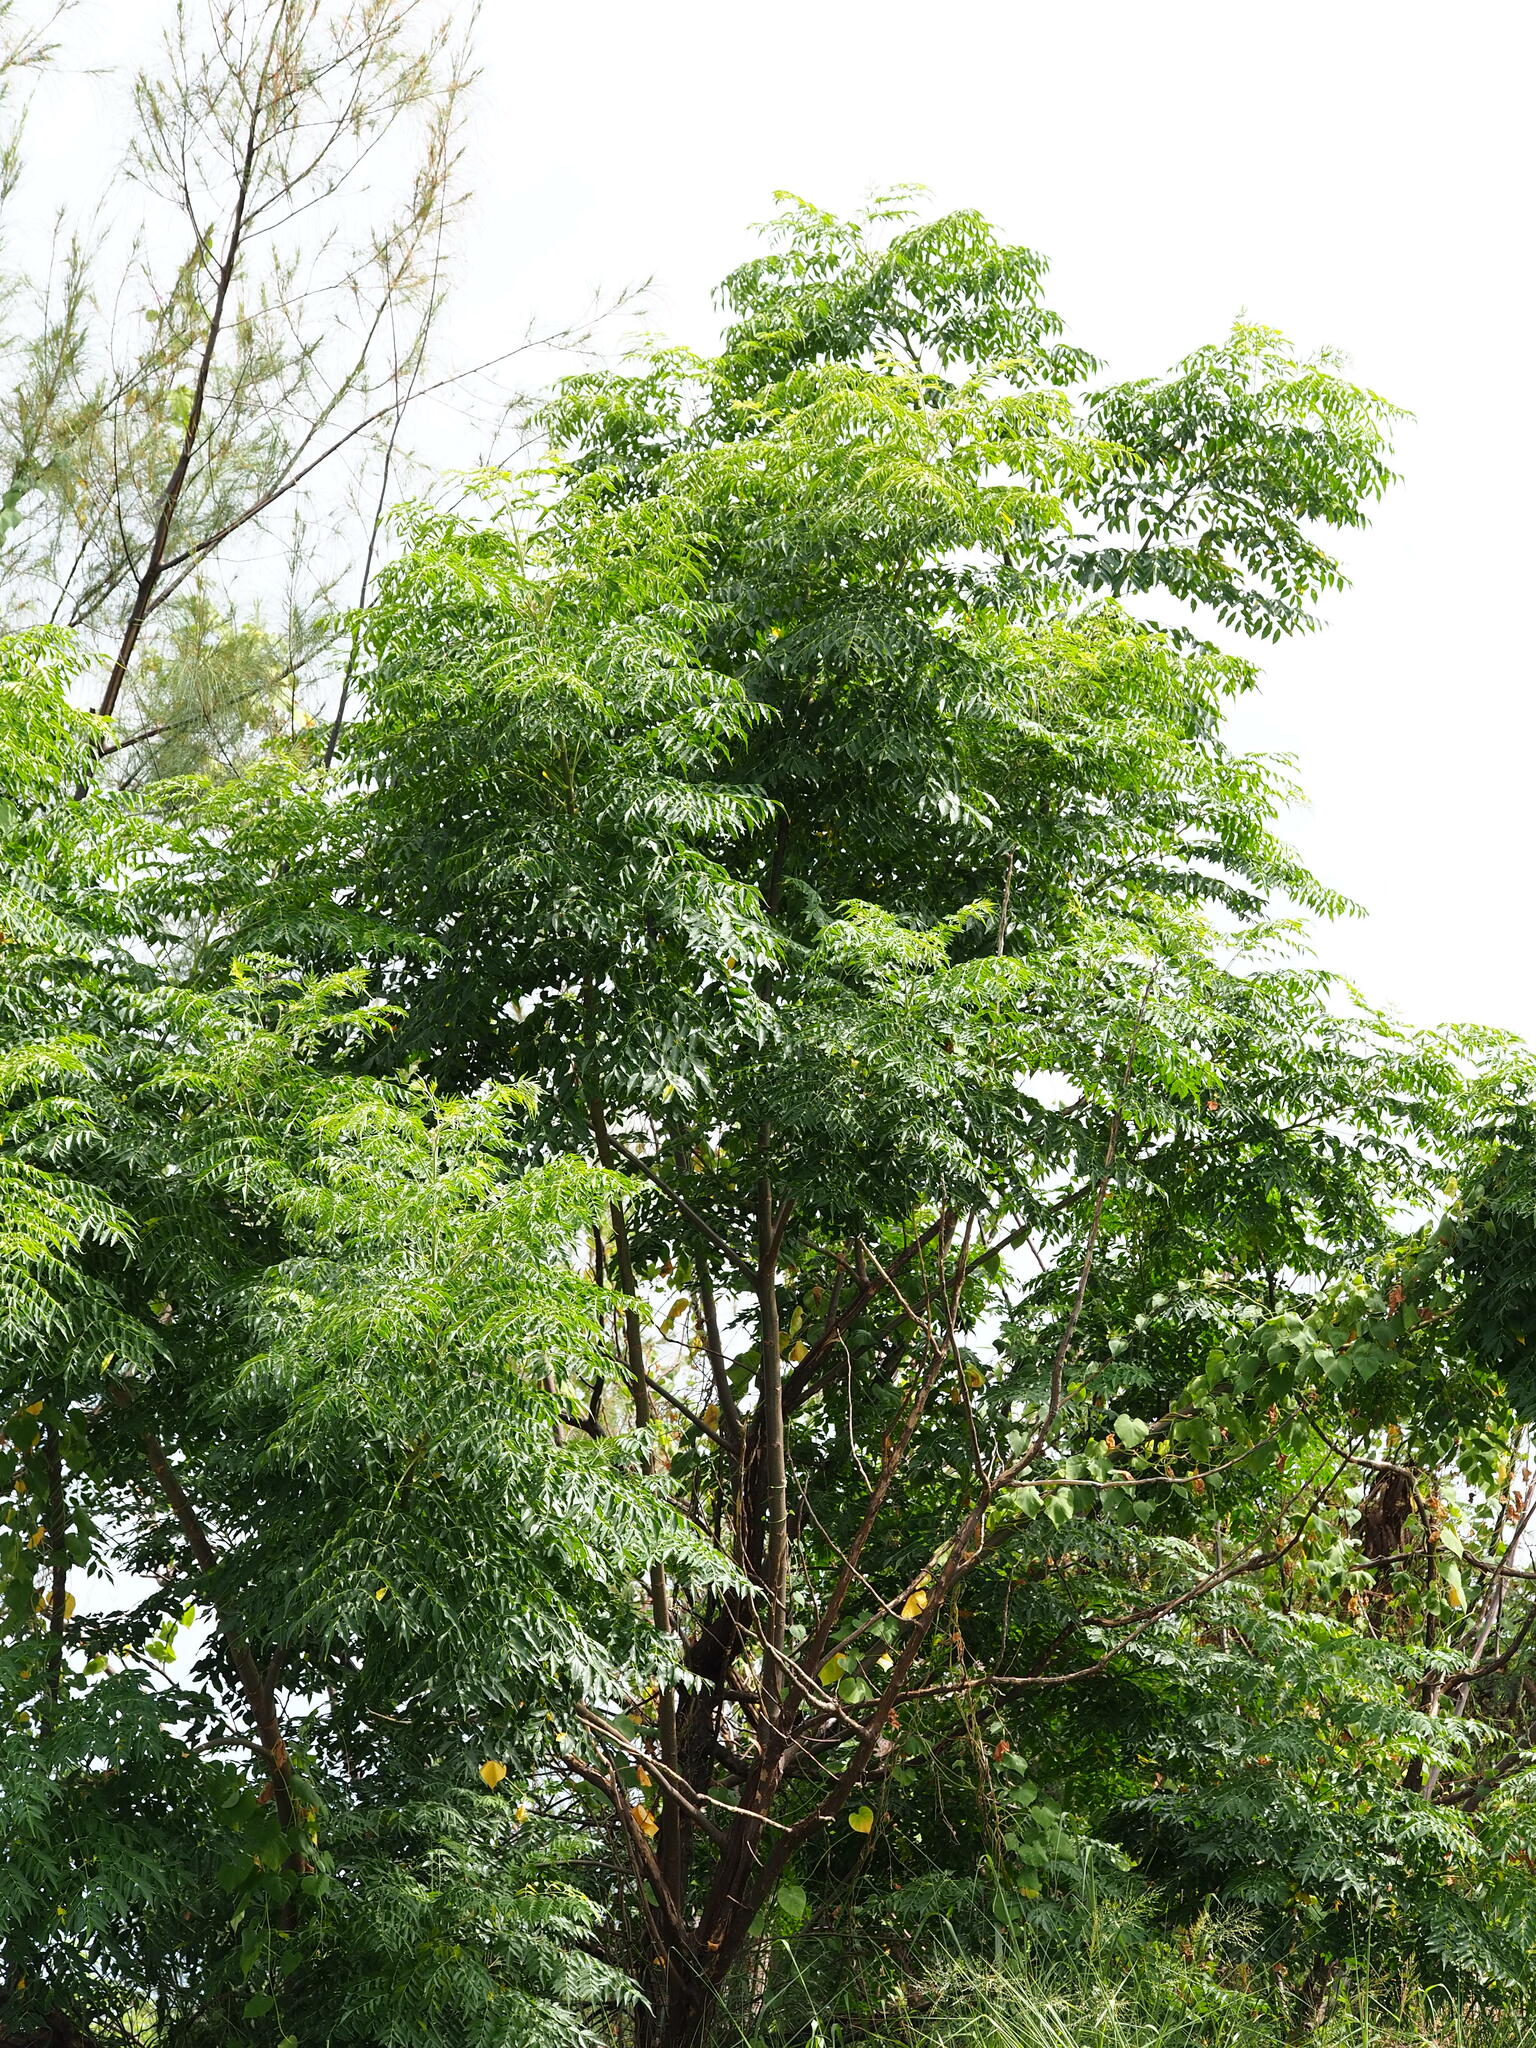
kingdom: Plantae
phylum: Tracheophyta
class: Magnoliopsida
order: Sapindales
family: Meliaceae
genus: Melia
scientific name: Melia azedarach
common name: Chinaberrytree
